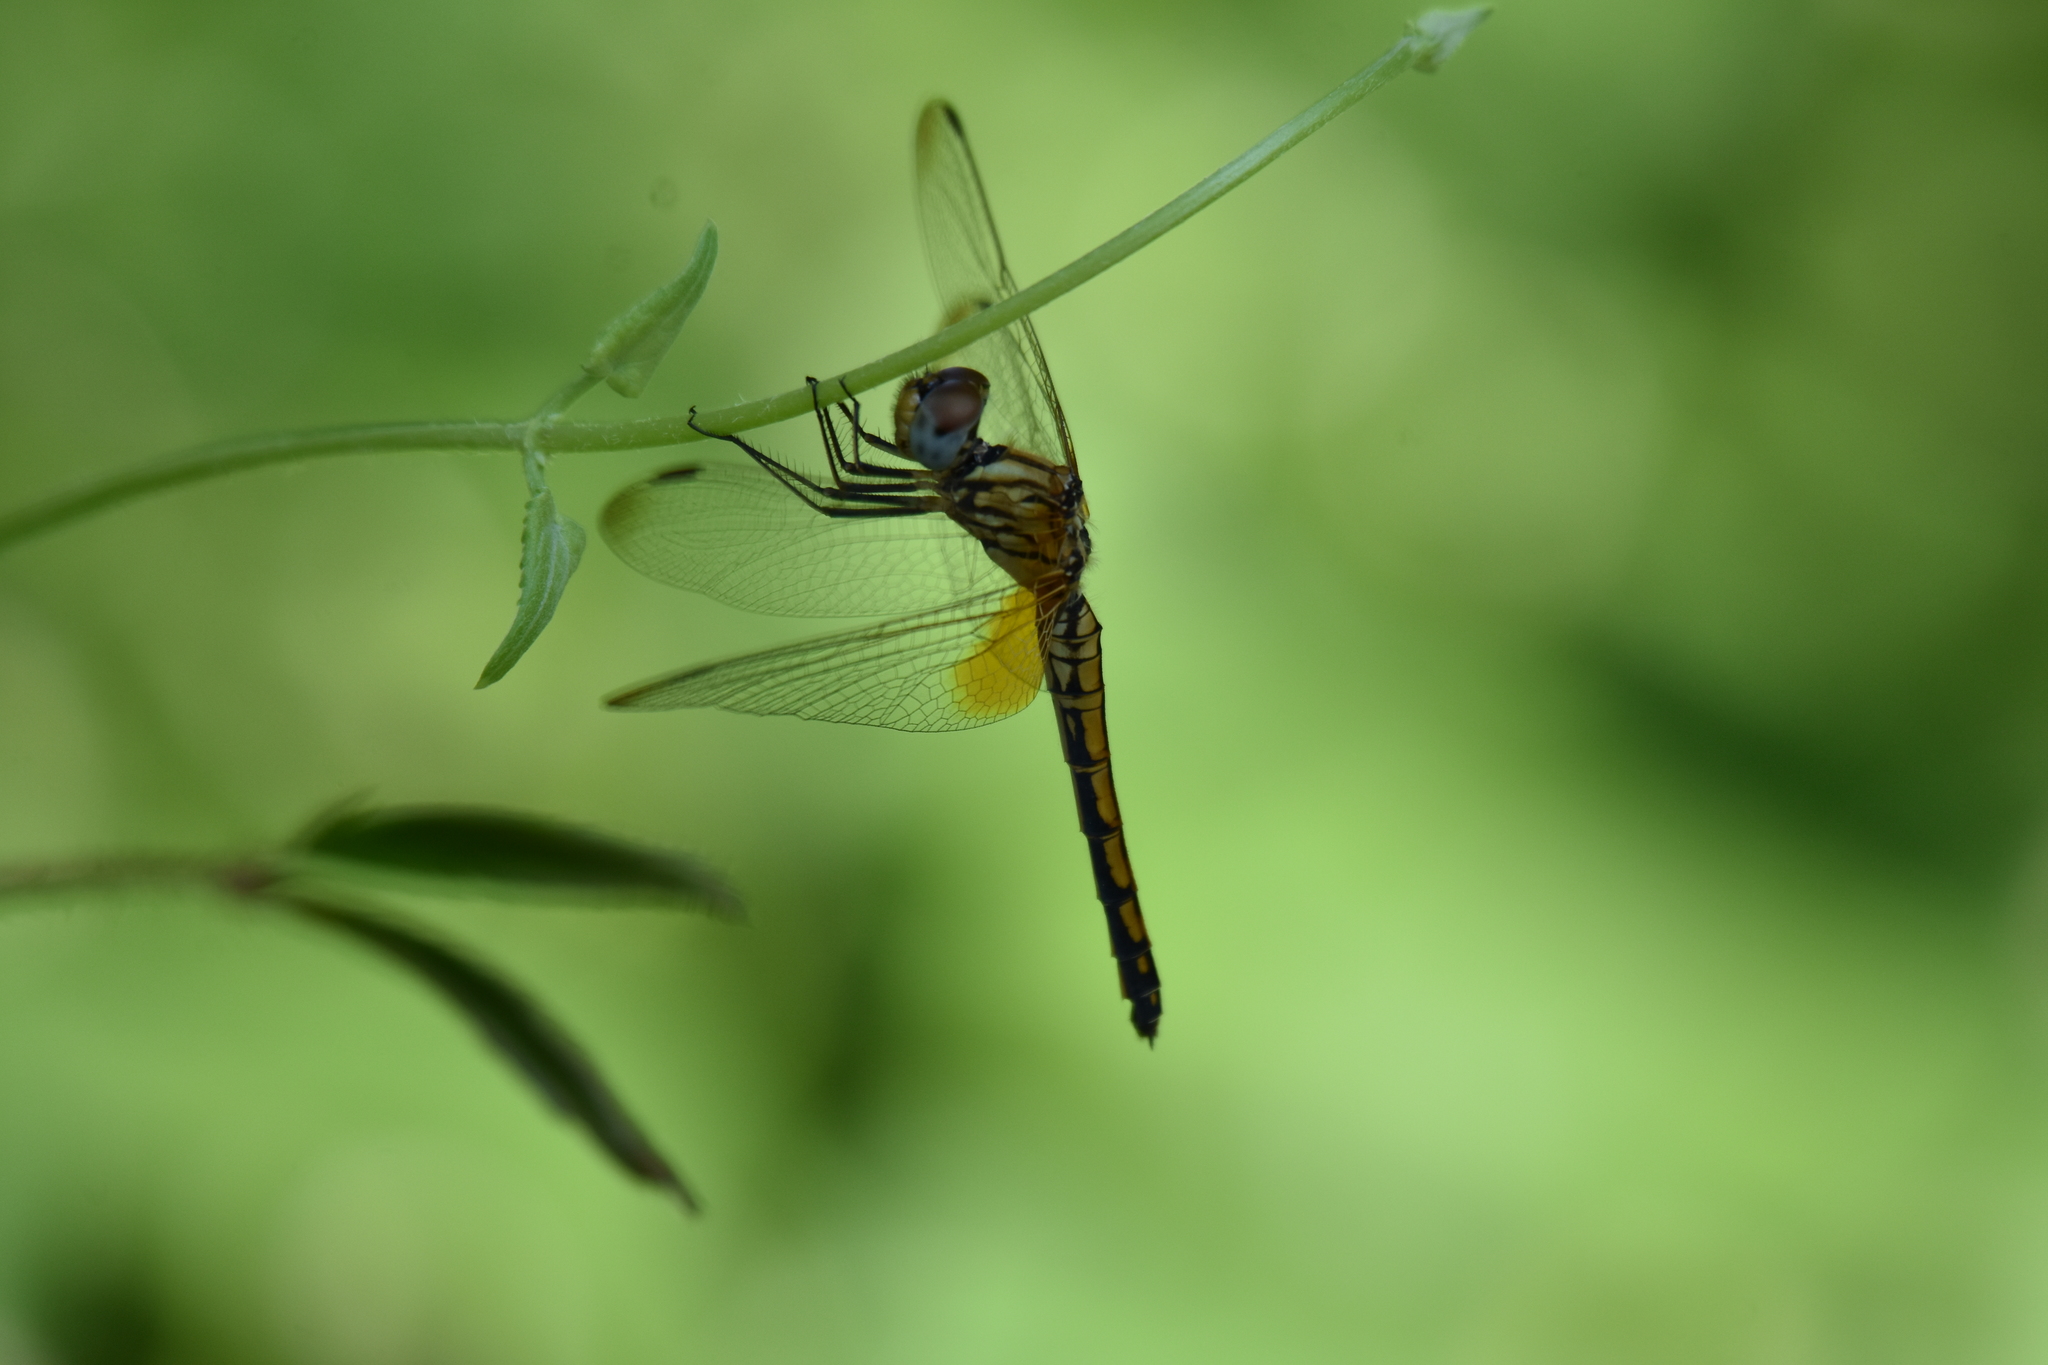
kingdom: Animalia
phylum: Arthropoda
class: Insecta
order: Odonata
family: Libellulidae
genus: Trithemis
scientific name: Trithemis aurora
